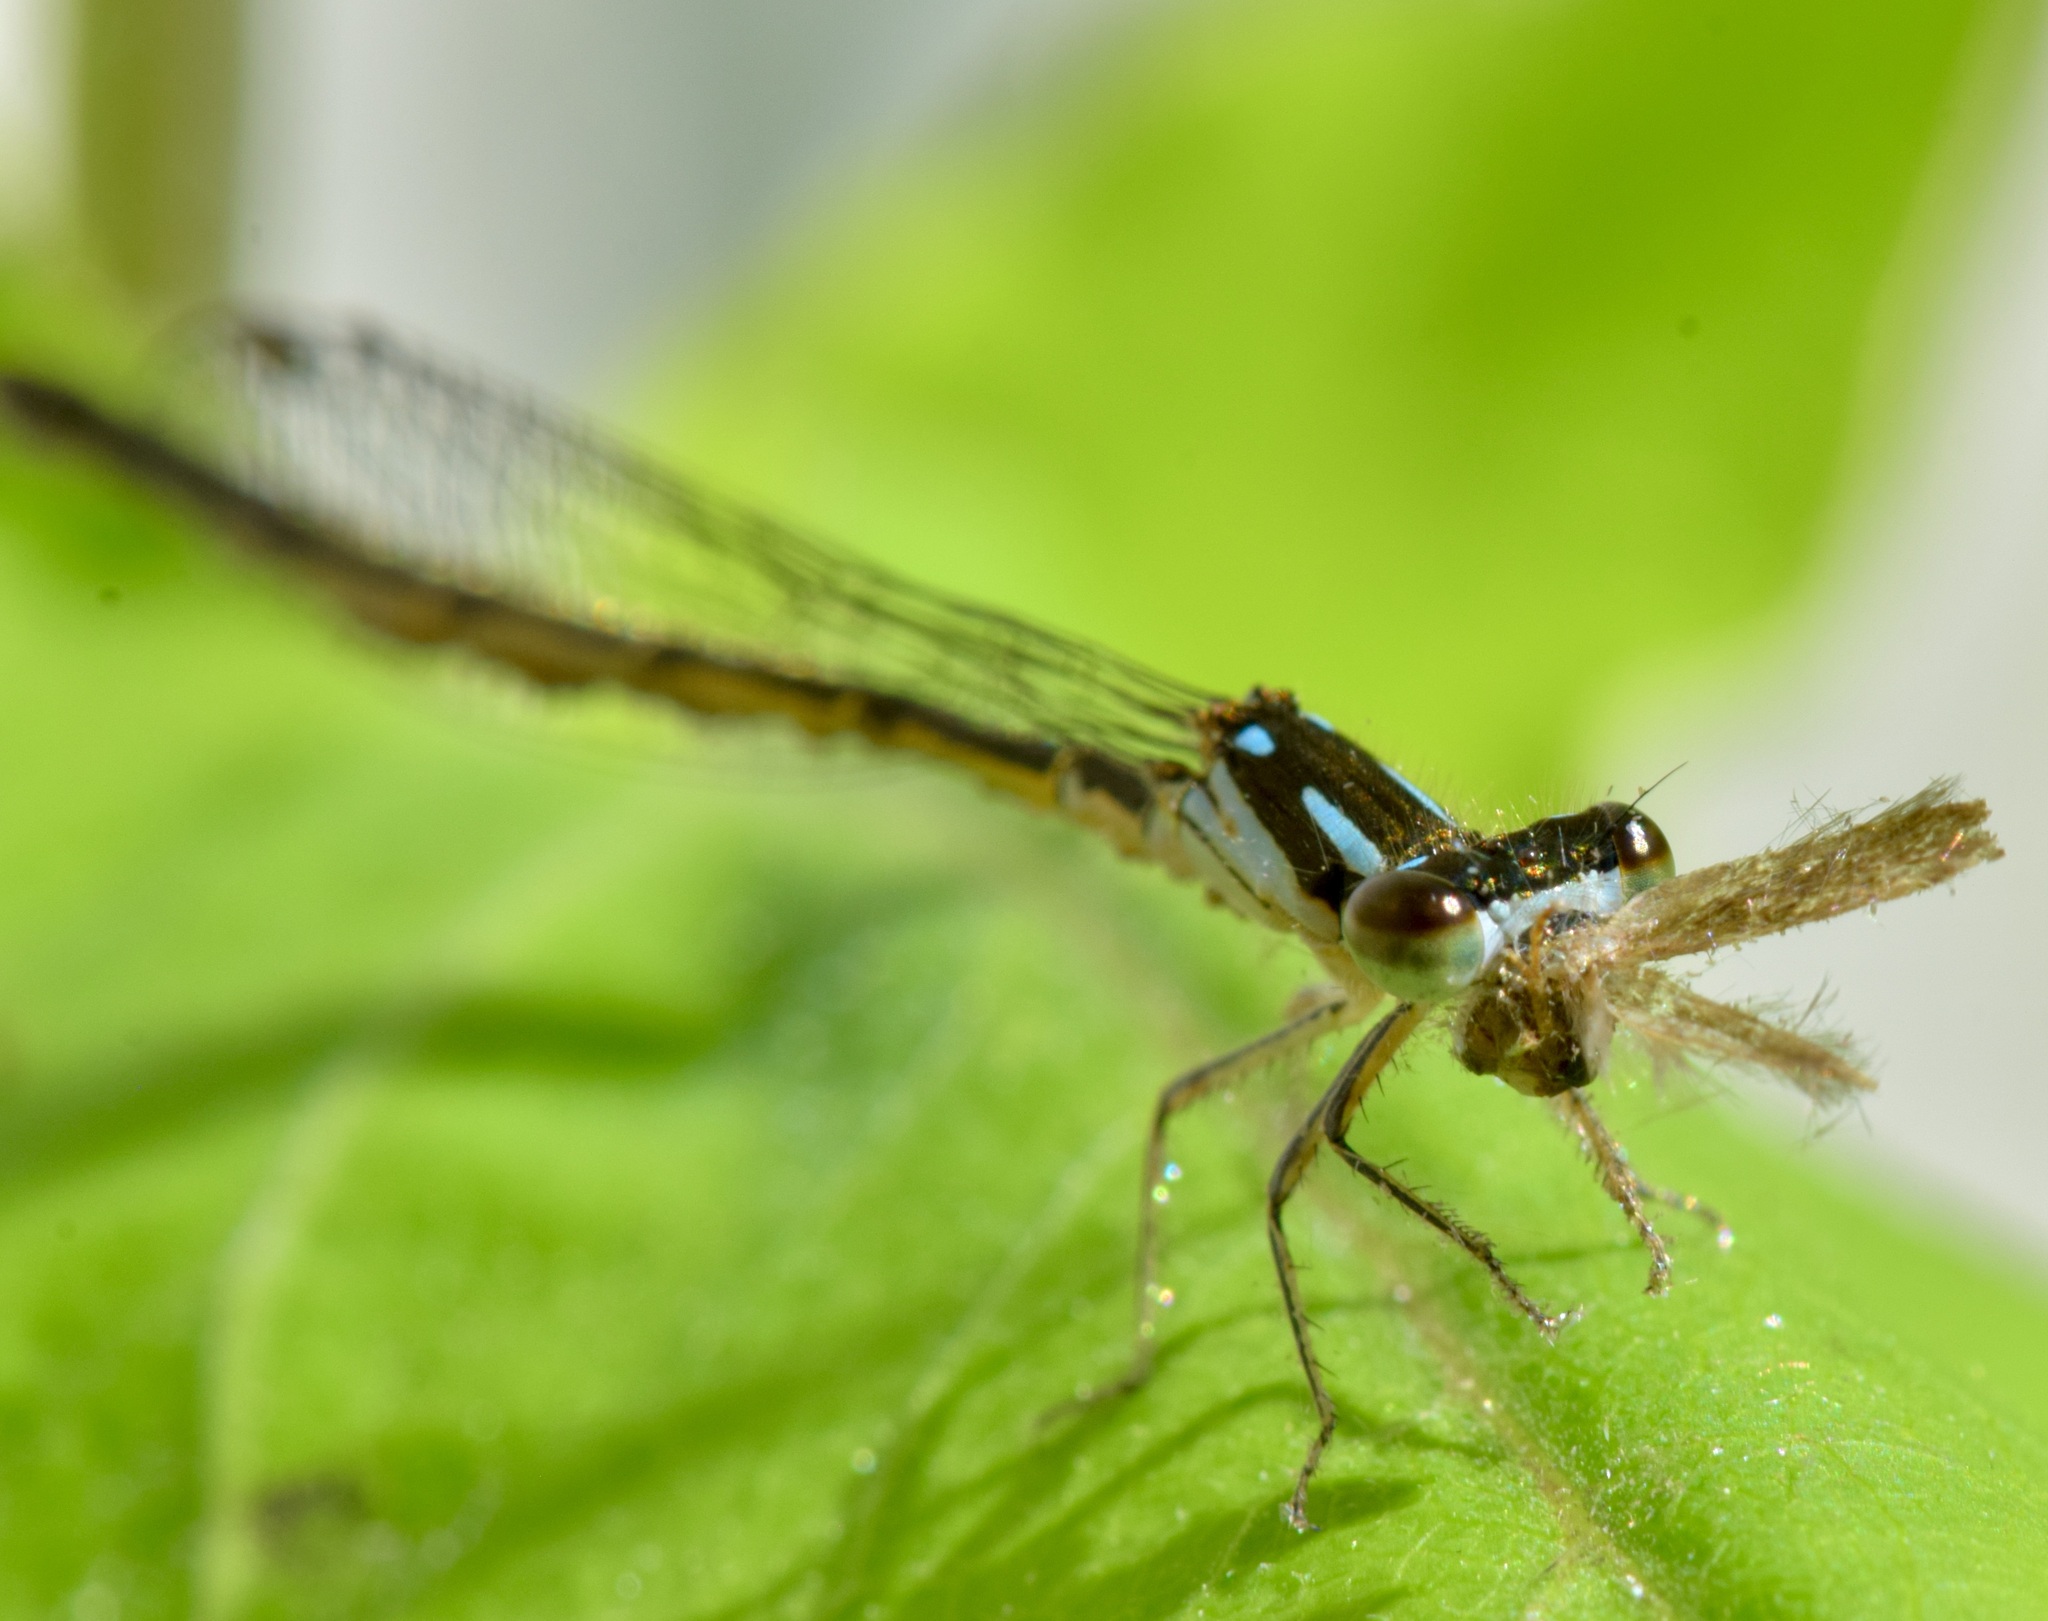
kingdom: Animalia
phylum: Arthropoda
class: Insecta
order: Odonata
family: Coenagrionidae
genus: Ischnura
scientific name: Ischnura posita
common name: Fragile forktail
